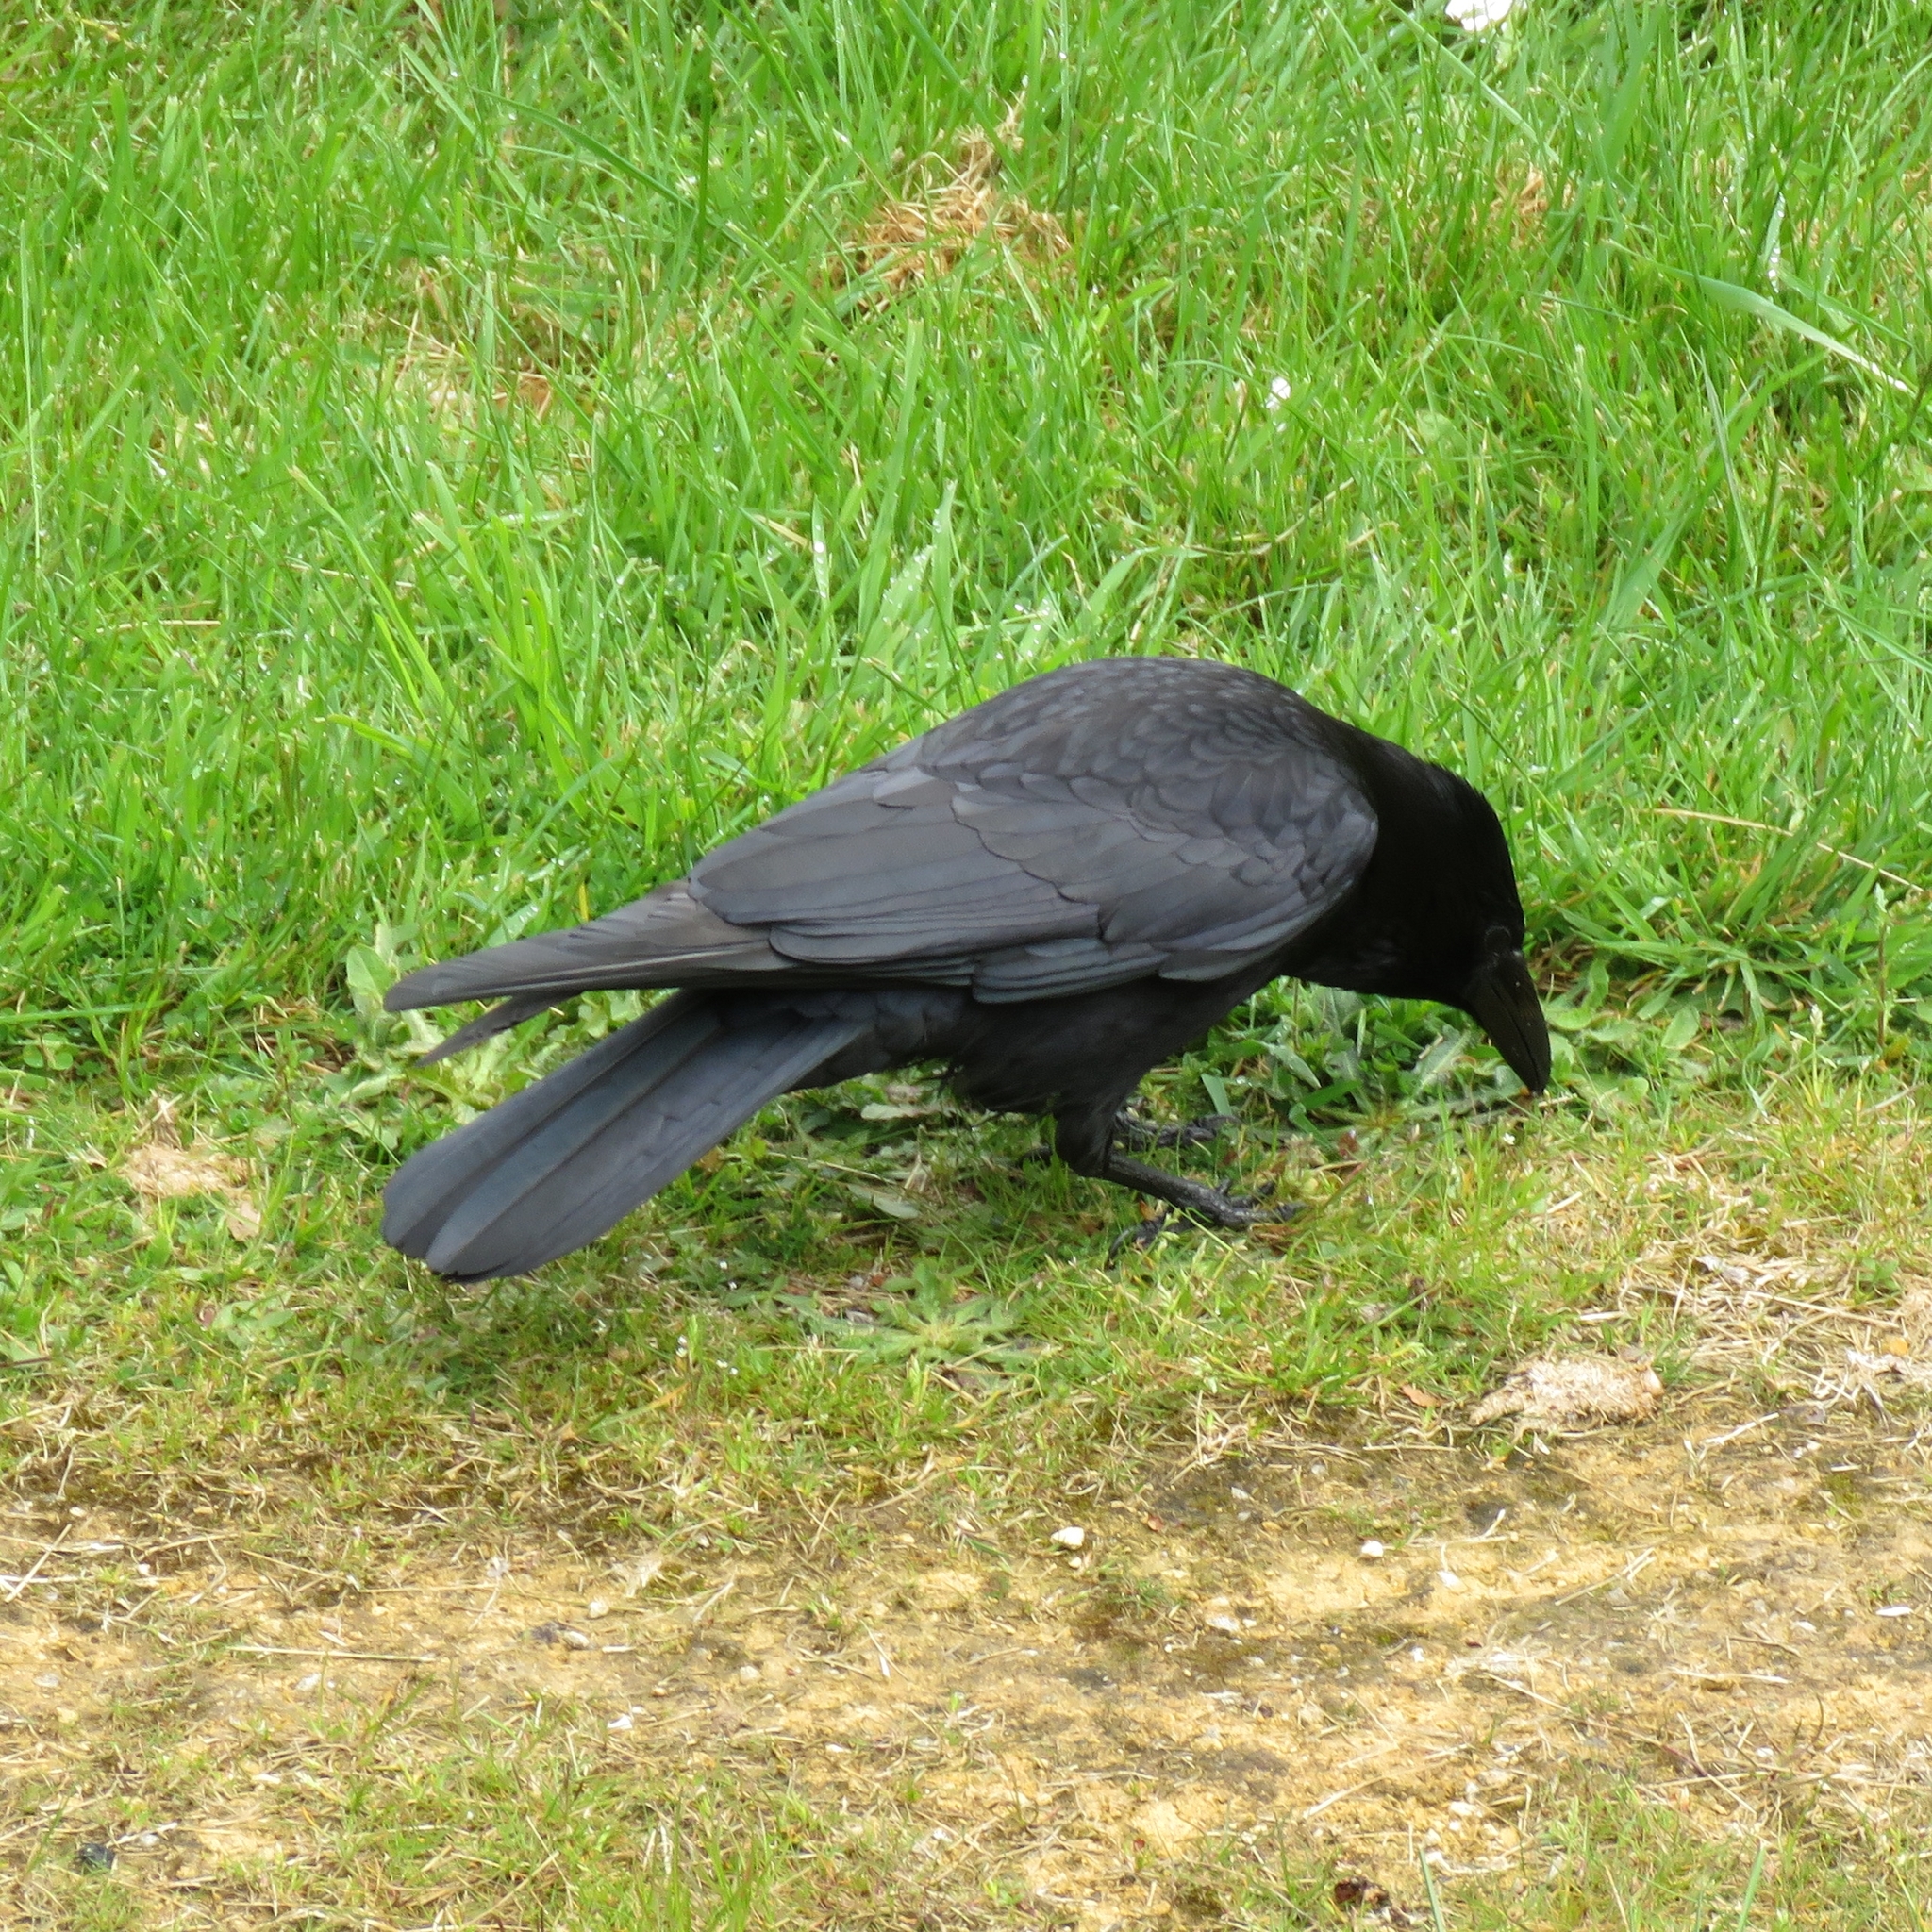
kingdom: Animalia
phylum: Chordata
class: Aves
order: Passeriformes
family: Corvidae
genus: Corvus
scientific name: Corvus corone
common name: Carrion crow
